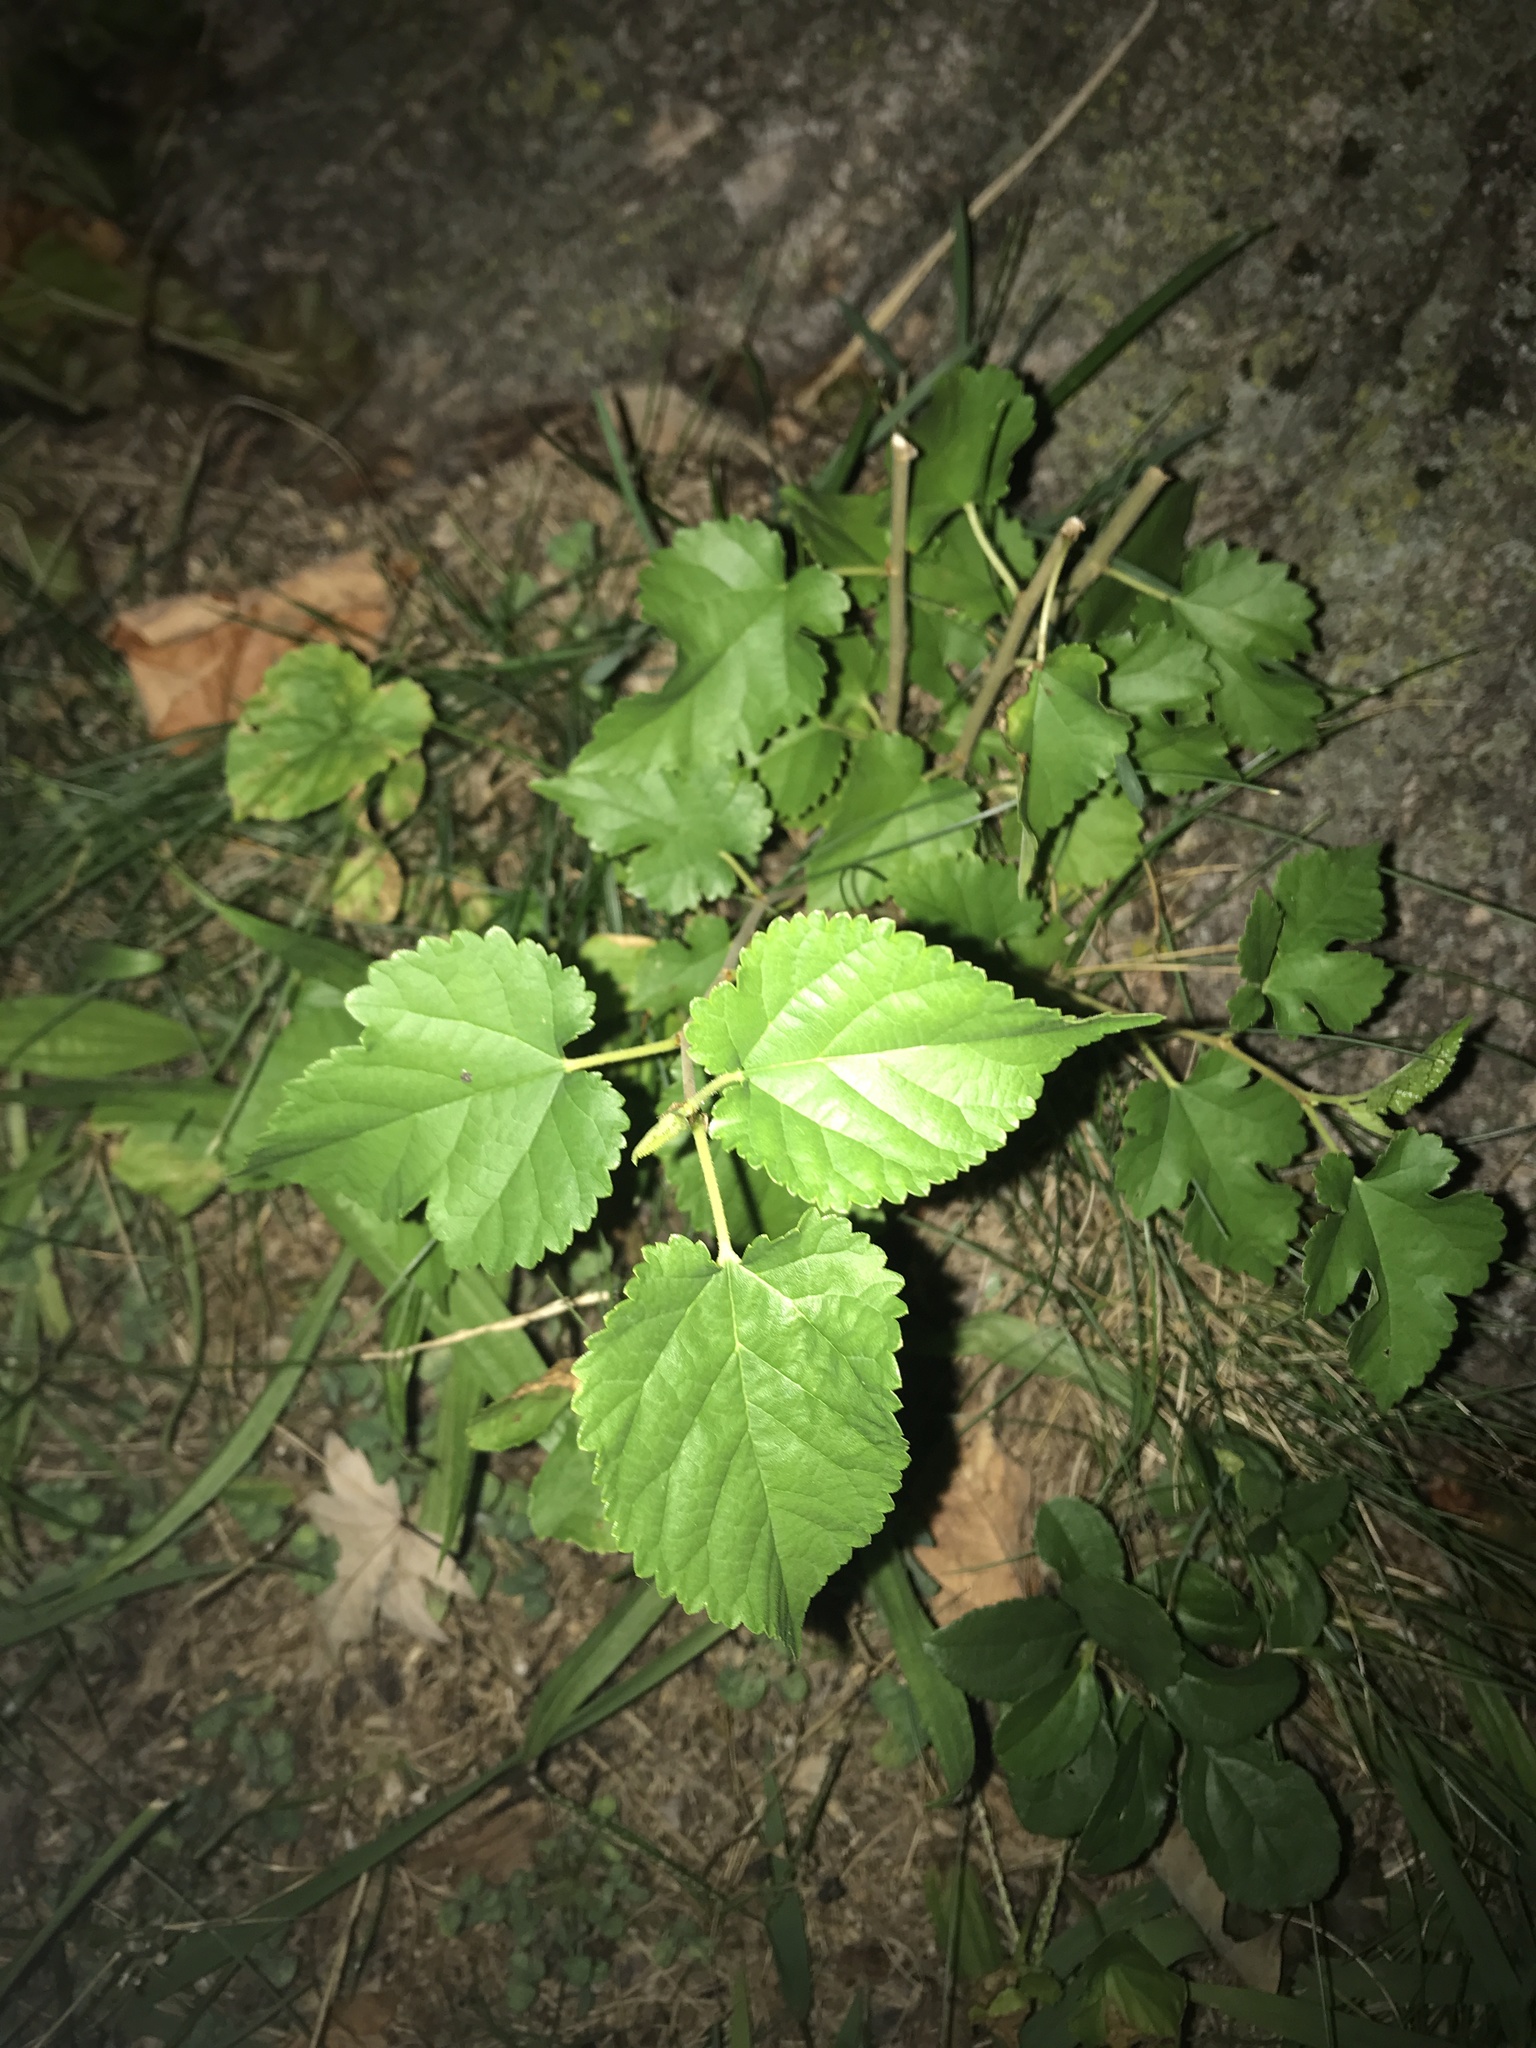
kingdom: Plantae
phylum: Tracheophyta
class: Magnoliopsida
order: Rosales
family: Moraceae
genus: Morus
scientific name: Morus alba
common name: White mulberry
